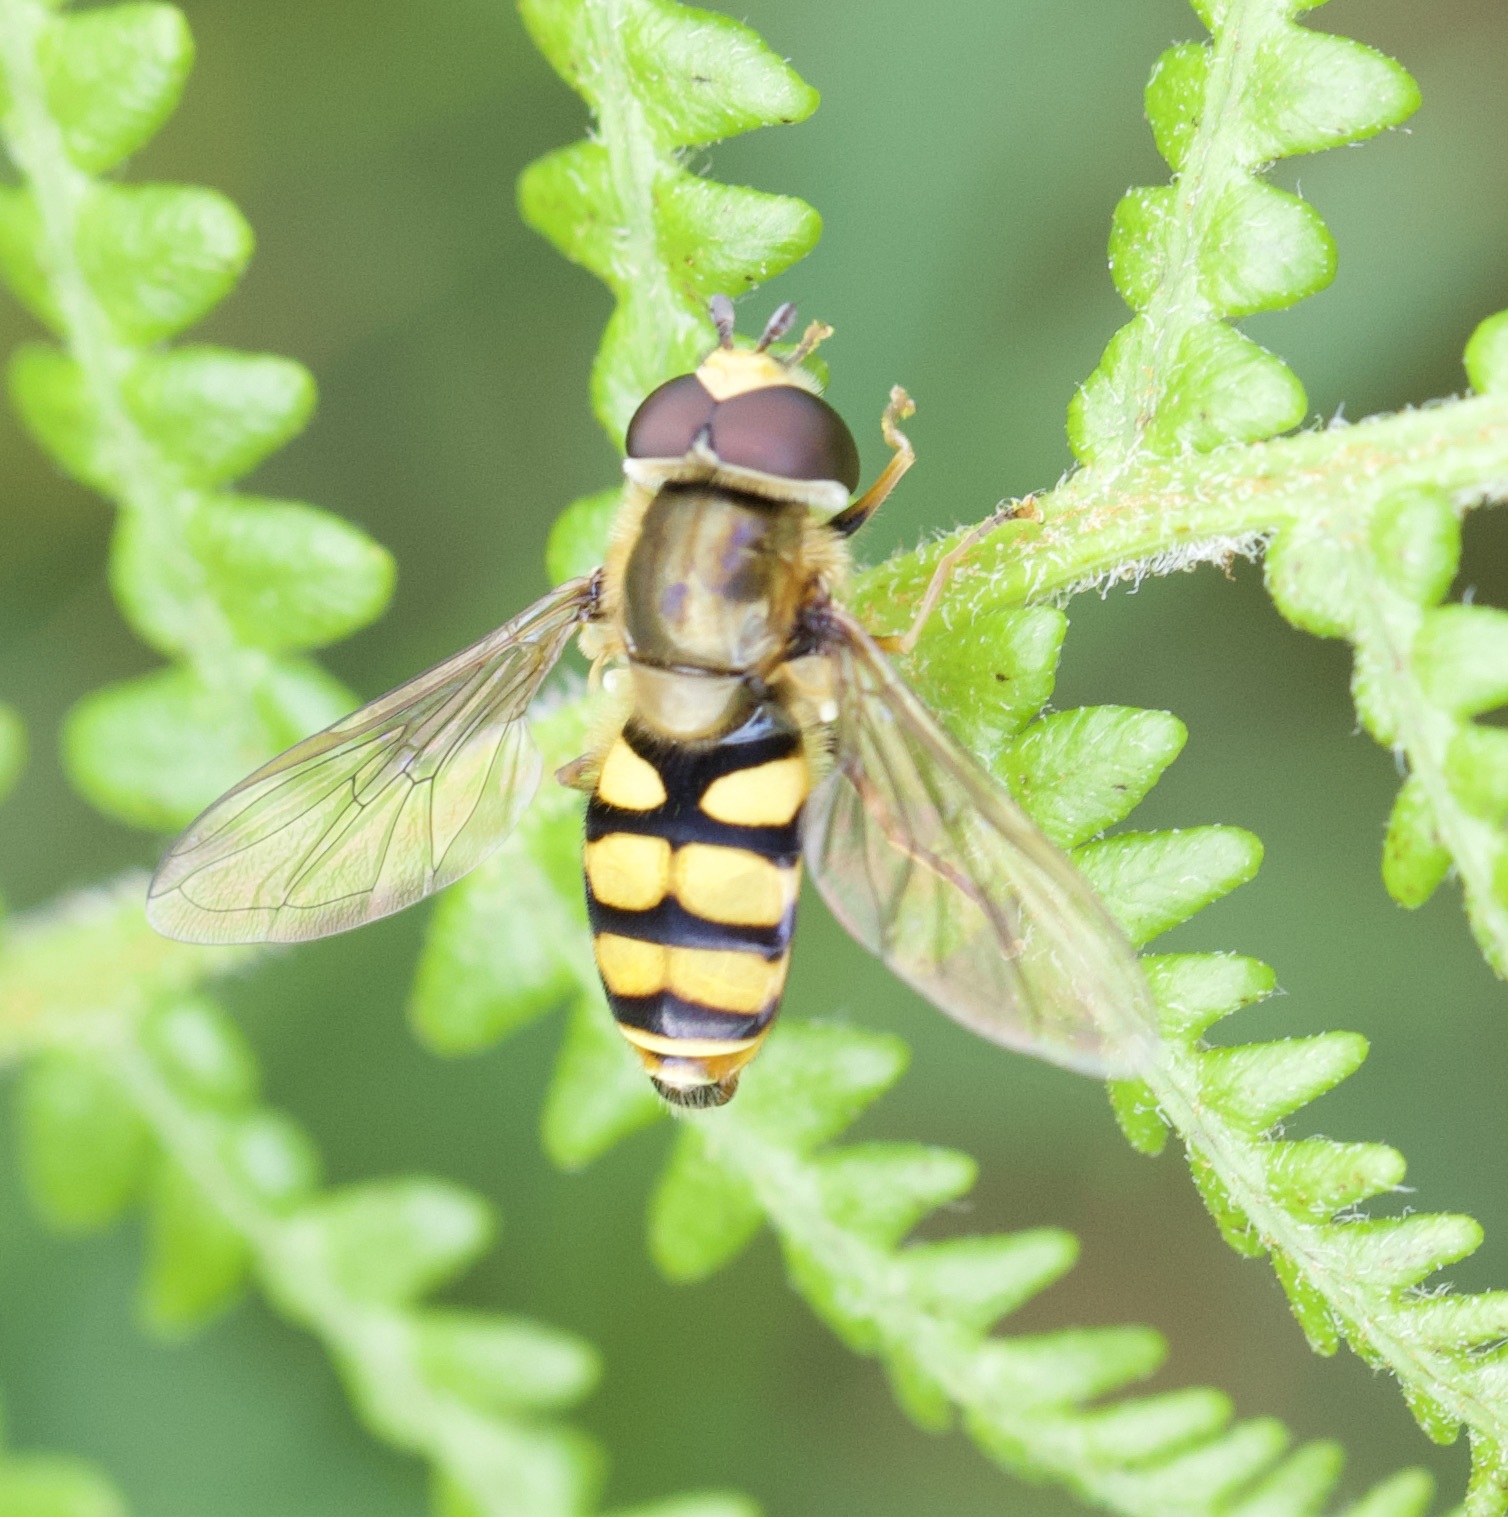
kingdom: Animalia
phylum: Arthropoda
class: Insecta
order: Diptera
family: Syrphidae
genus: Eupeodes
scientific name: Eupeodes corollae
